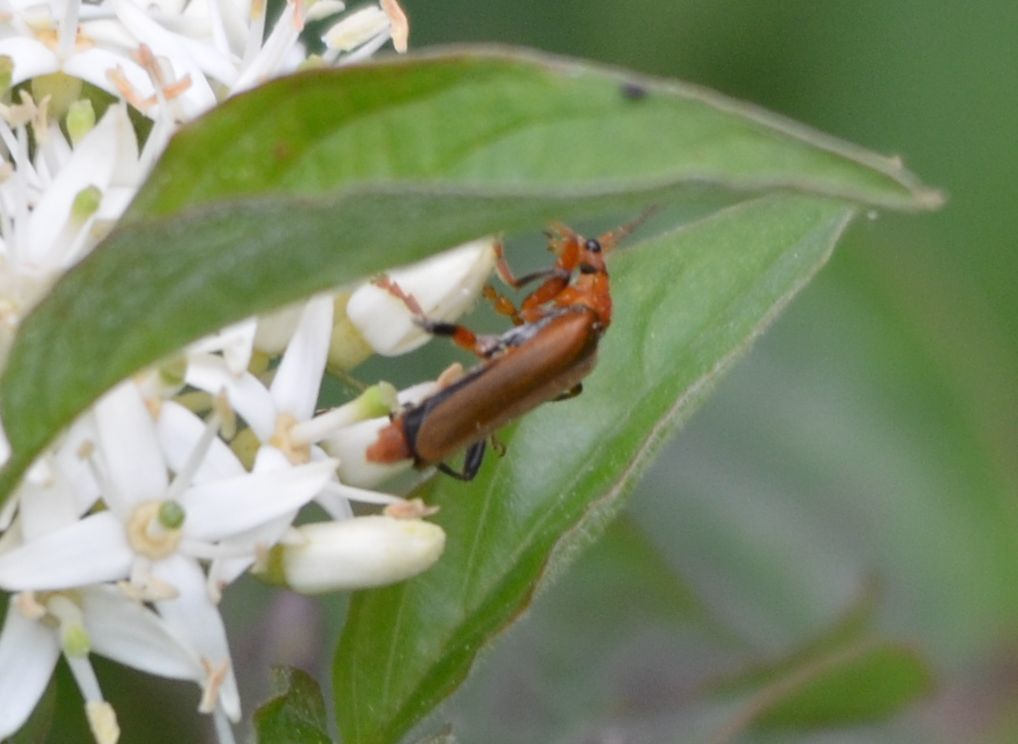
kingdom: Animalia
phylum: Arthropoda
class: Insecta
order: Coleoptera
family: Cantharidae
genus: Cantharis
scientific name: Cantharis livida
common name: Livid soldier beetle
